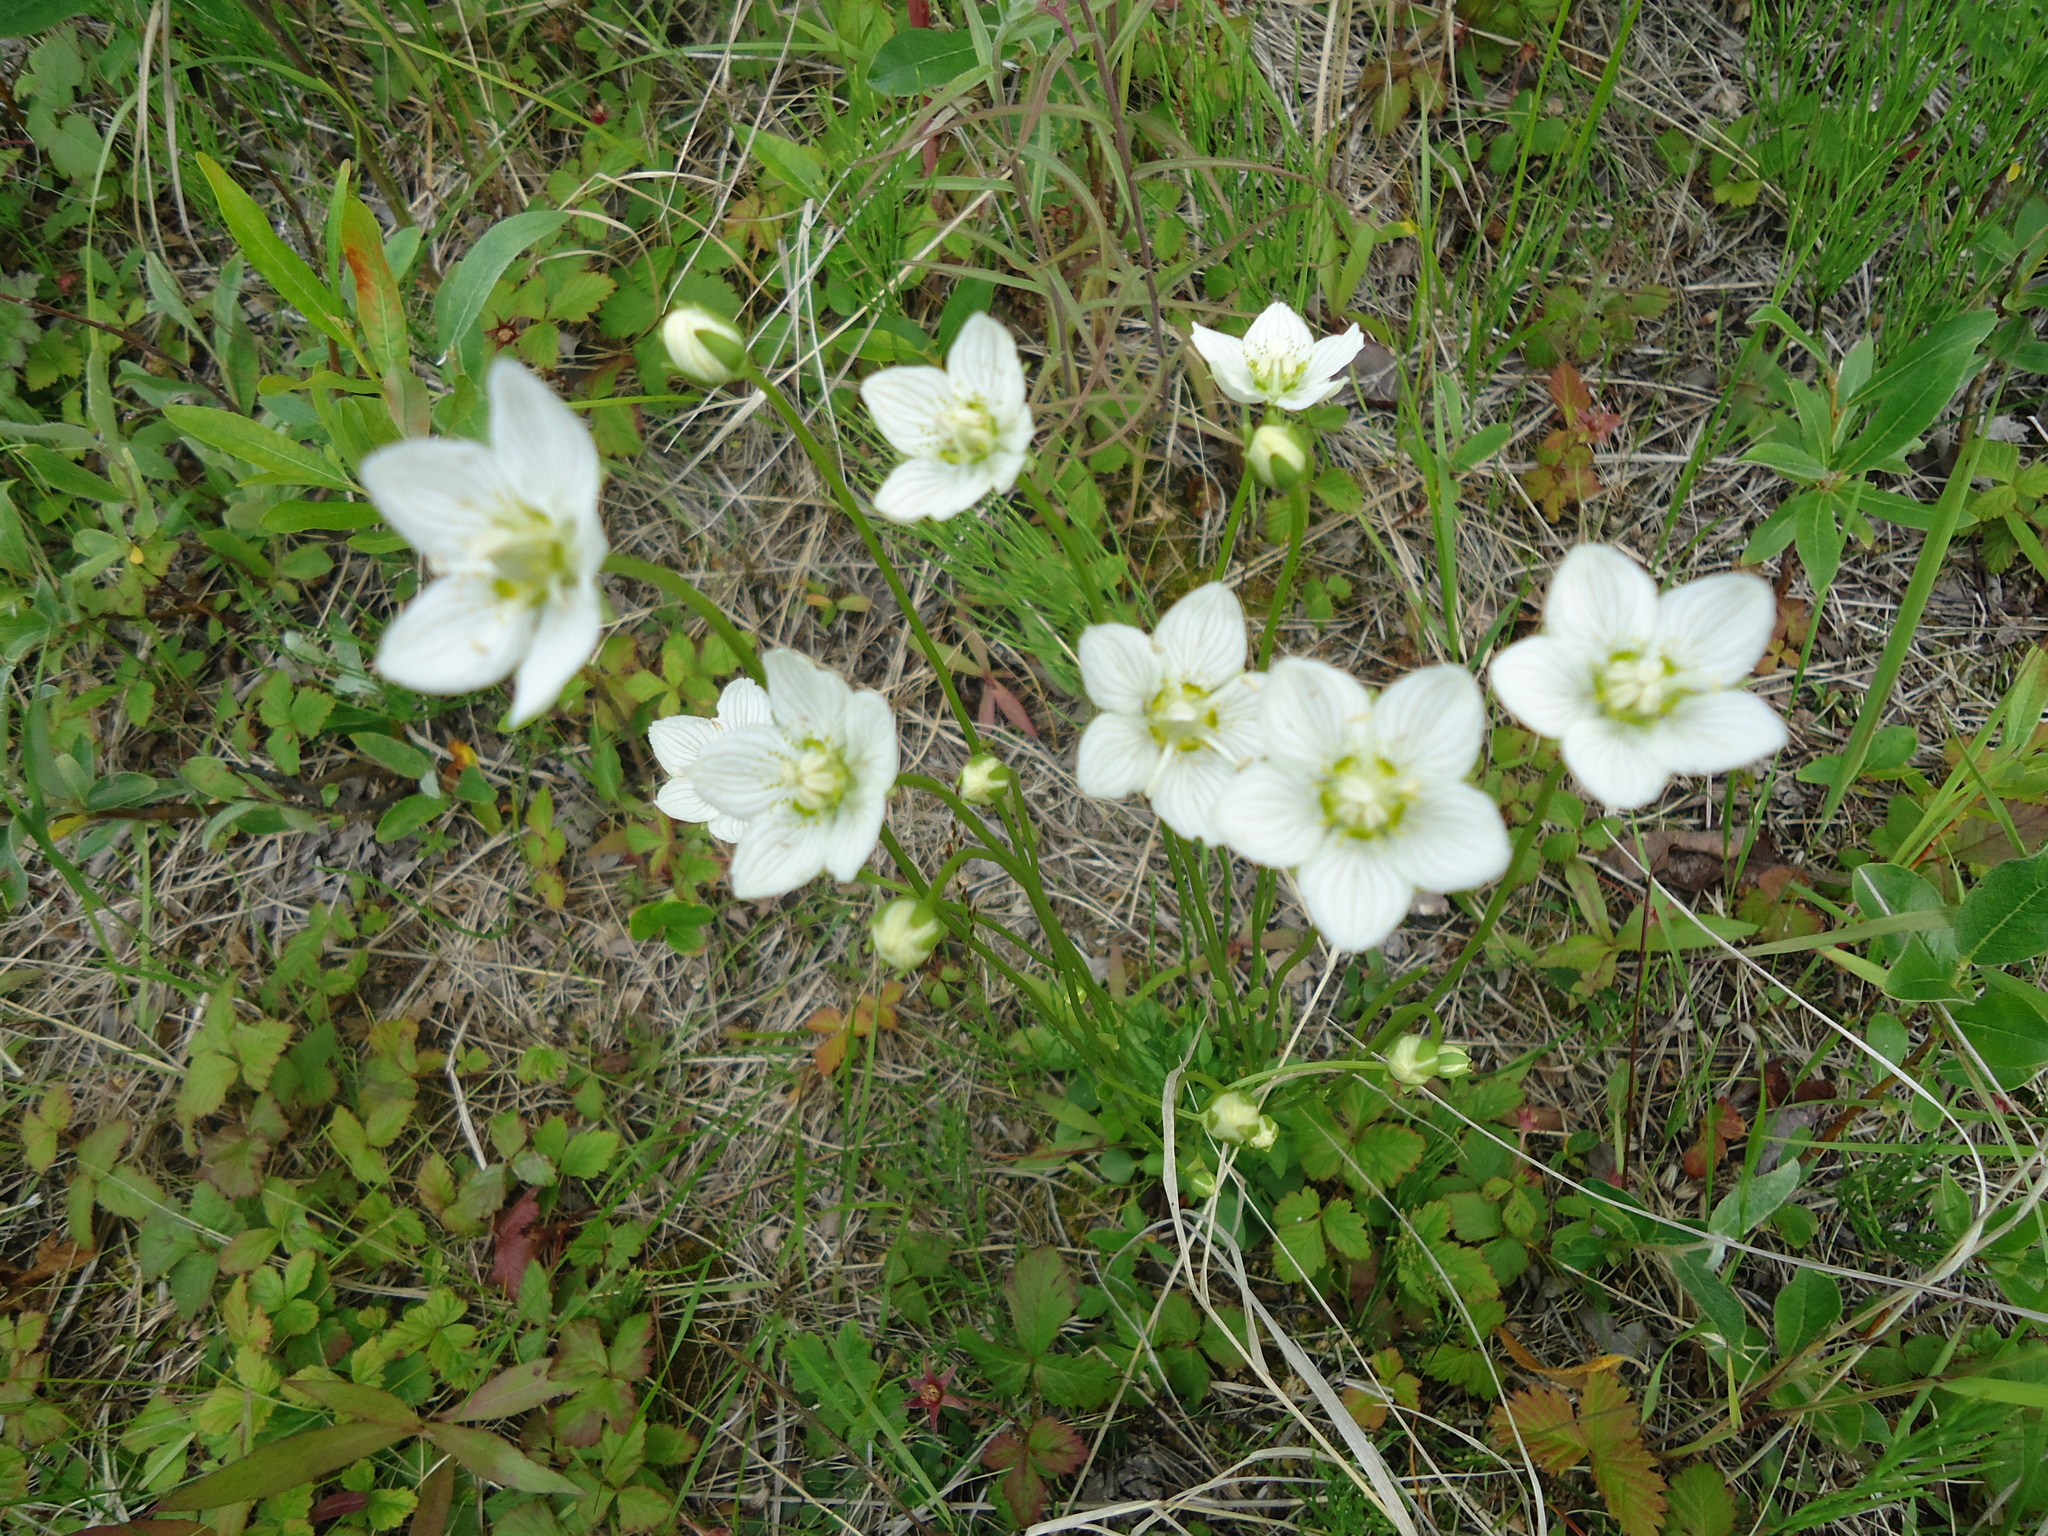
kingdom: Plantae
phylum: Tracheophyta
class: Magnoliopsida
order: Celastrales
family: Parnassiaceae
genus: Parnassia
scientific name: Parnassia palustris
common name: Grass-of-parnassus
